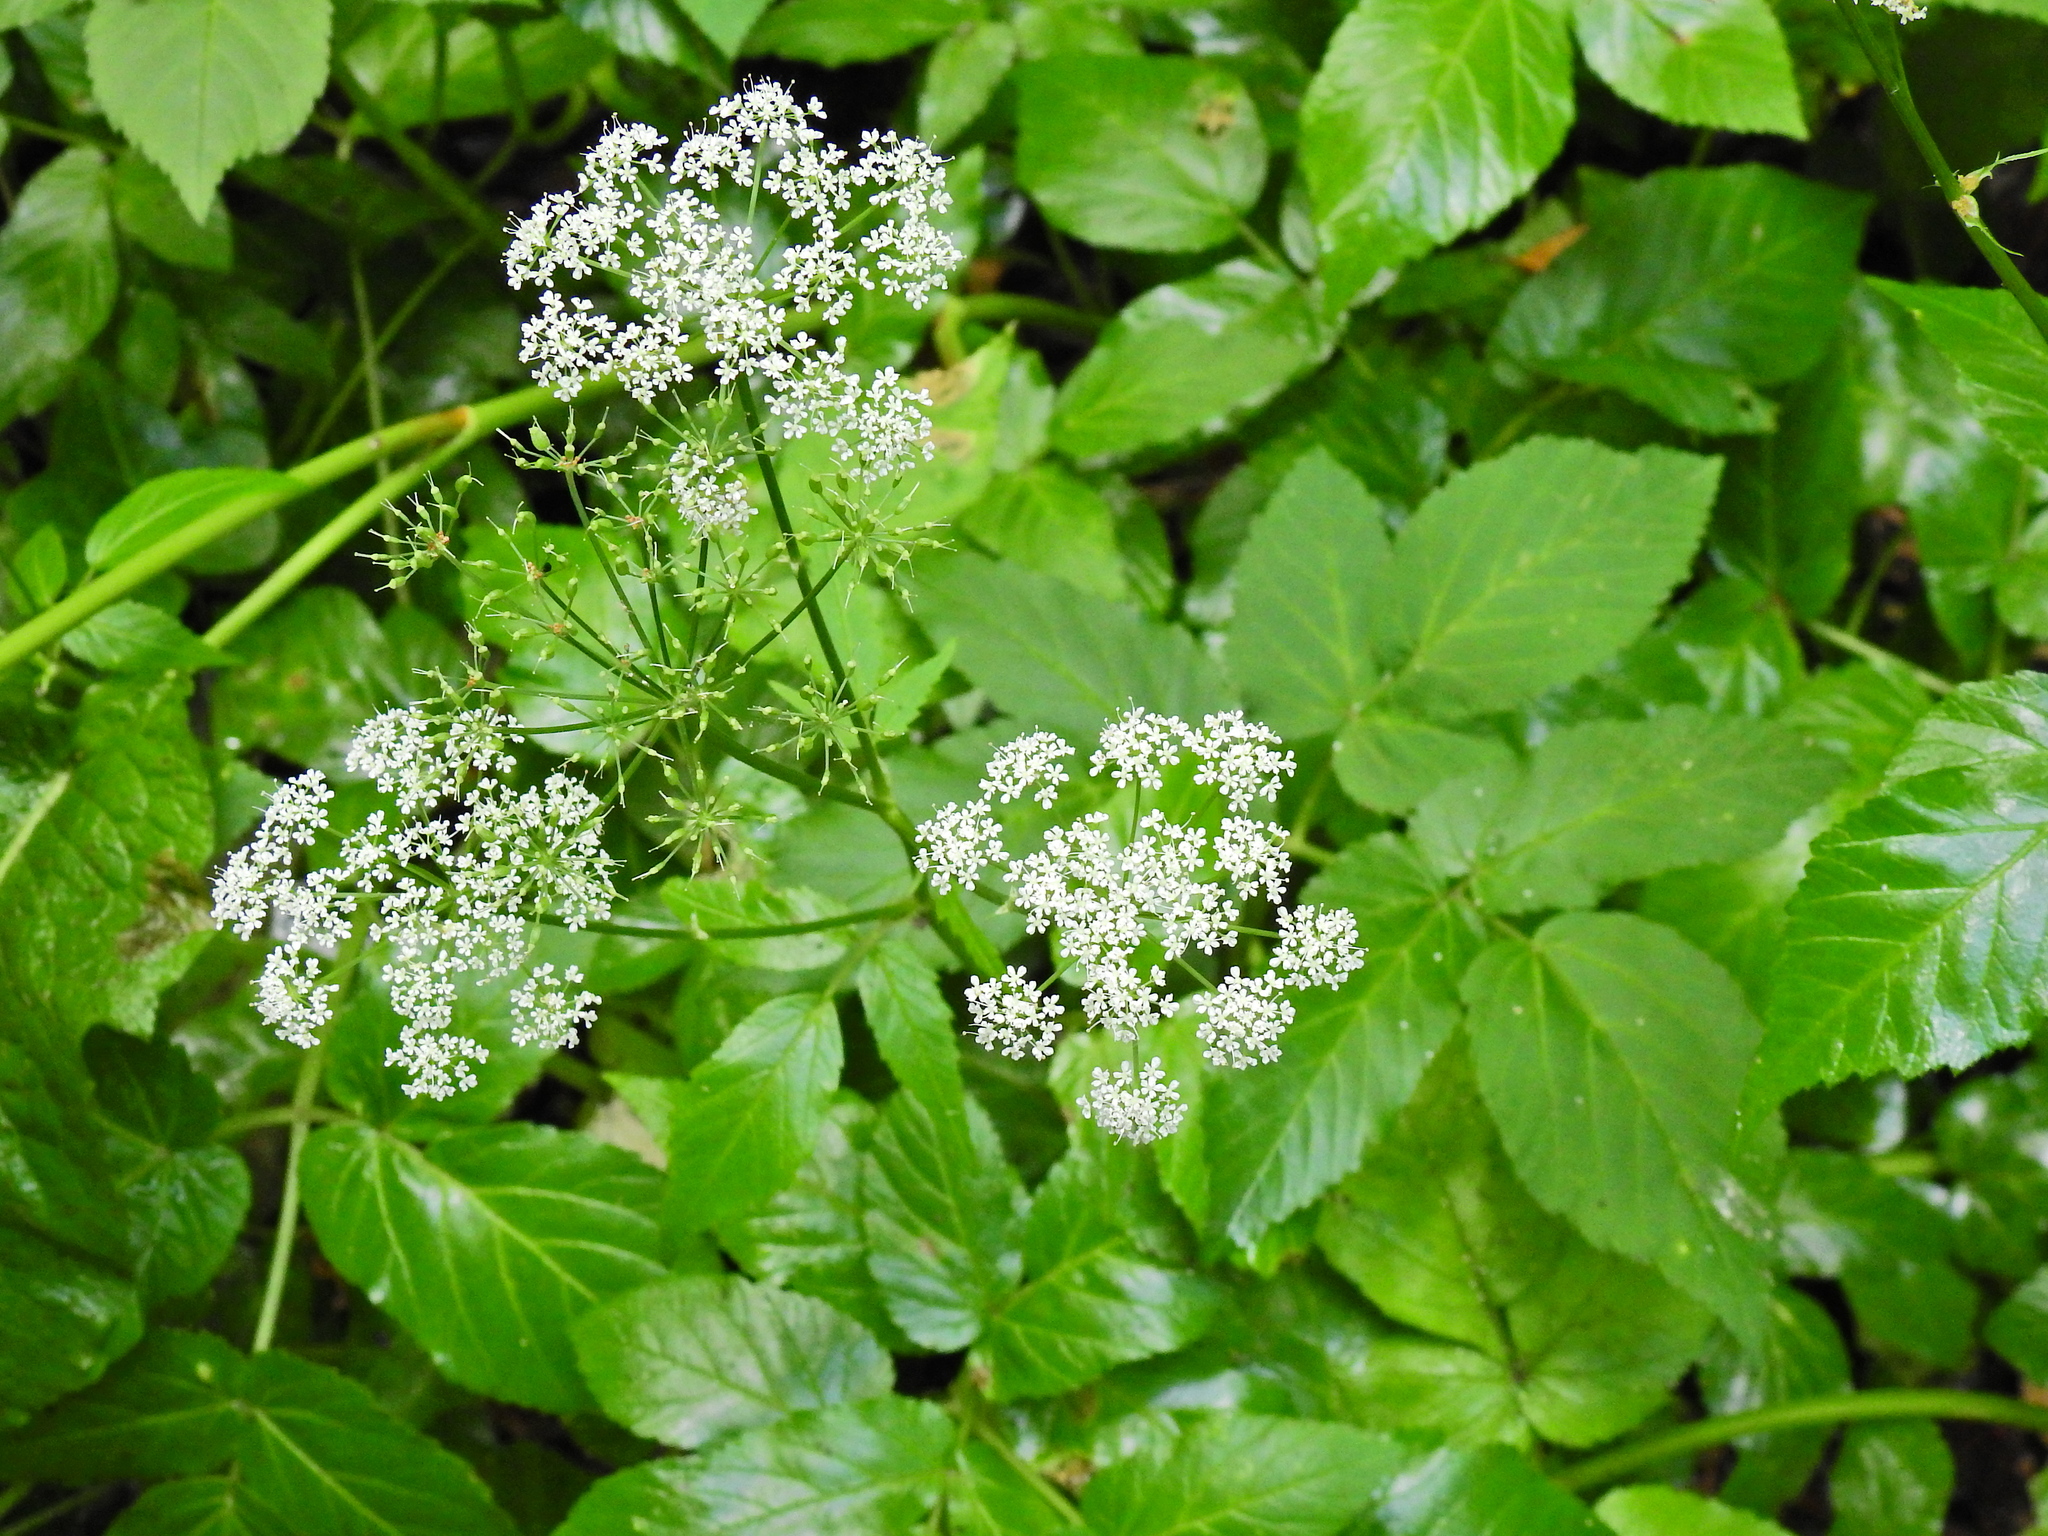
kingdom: Plantae
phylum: Tracheophyta
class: Magnoliopsida
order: Apiales
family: Apiaceae
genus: Aegopodium
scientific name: Aegopodium podagraria
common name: Ground-elder
